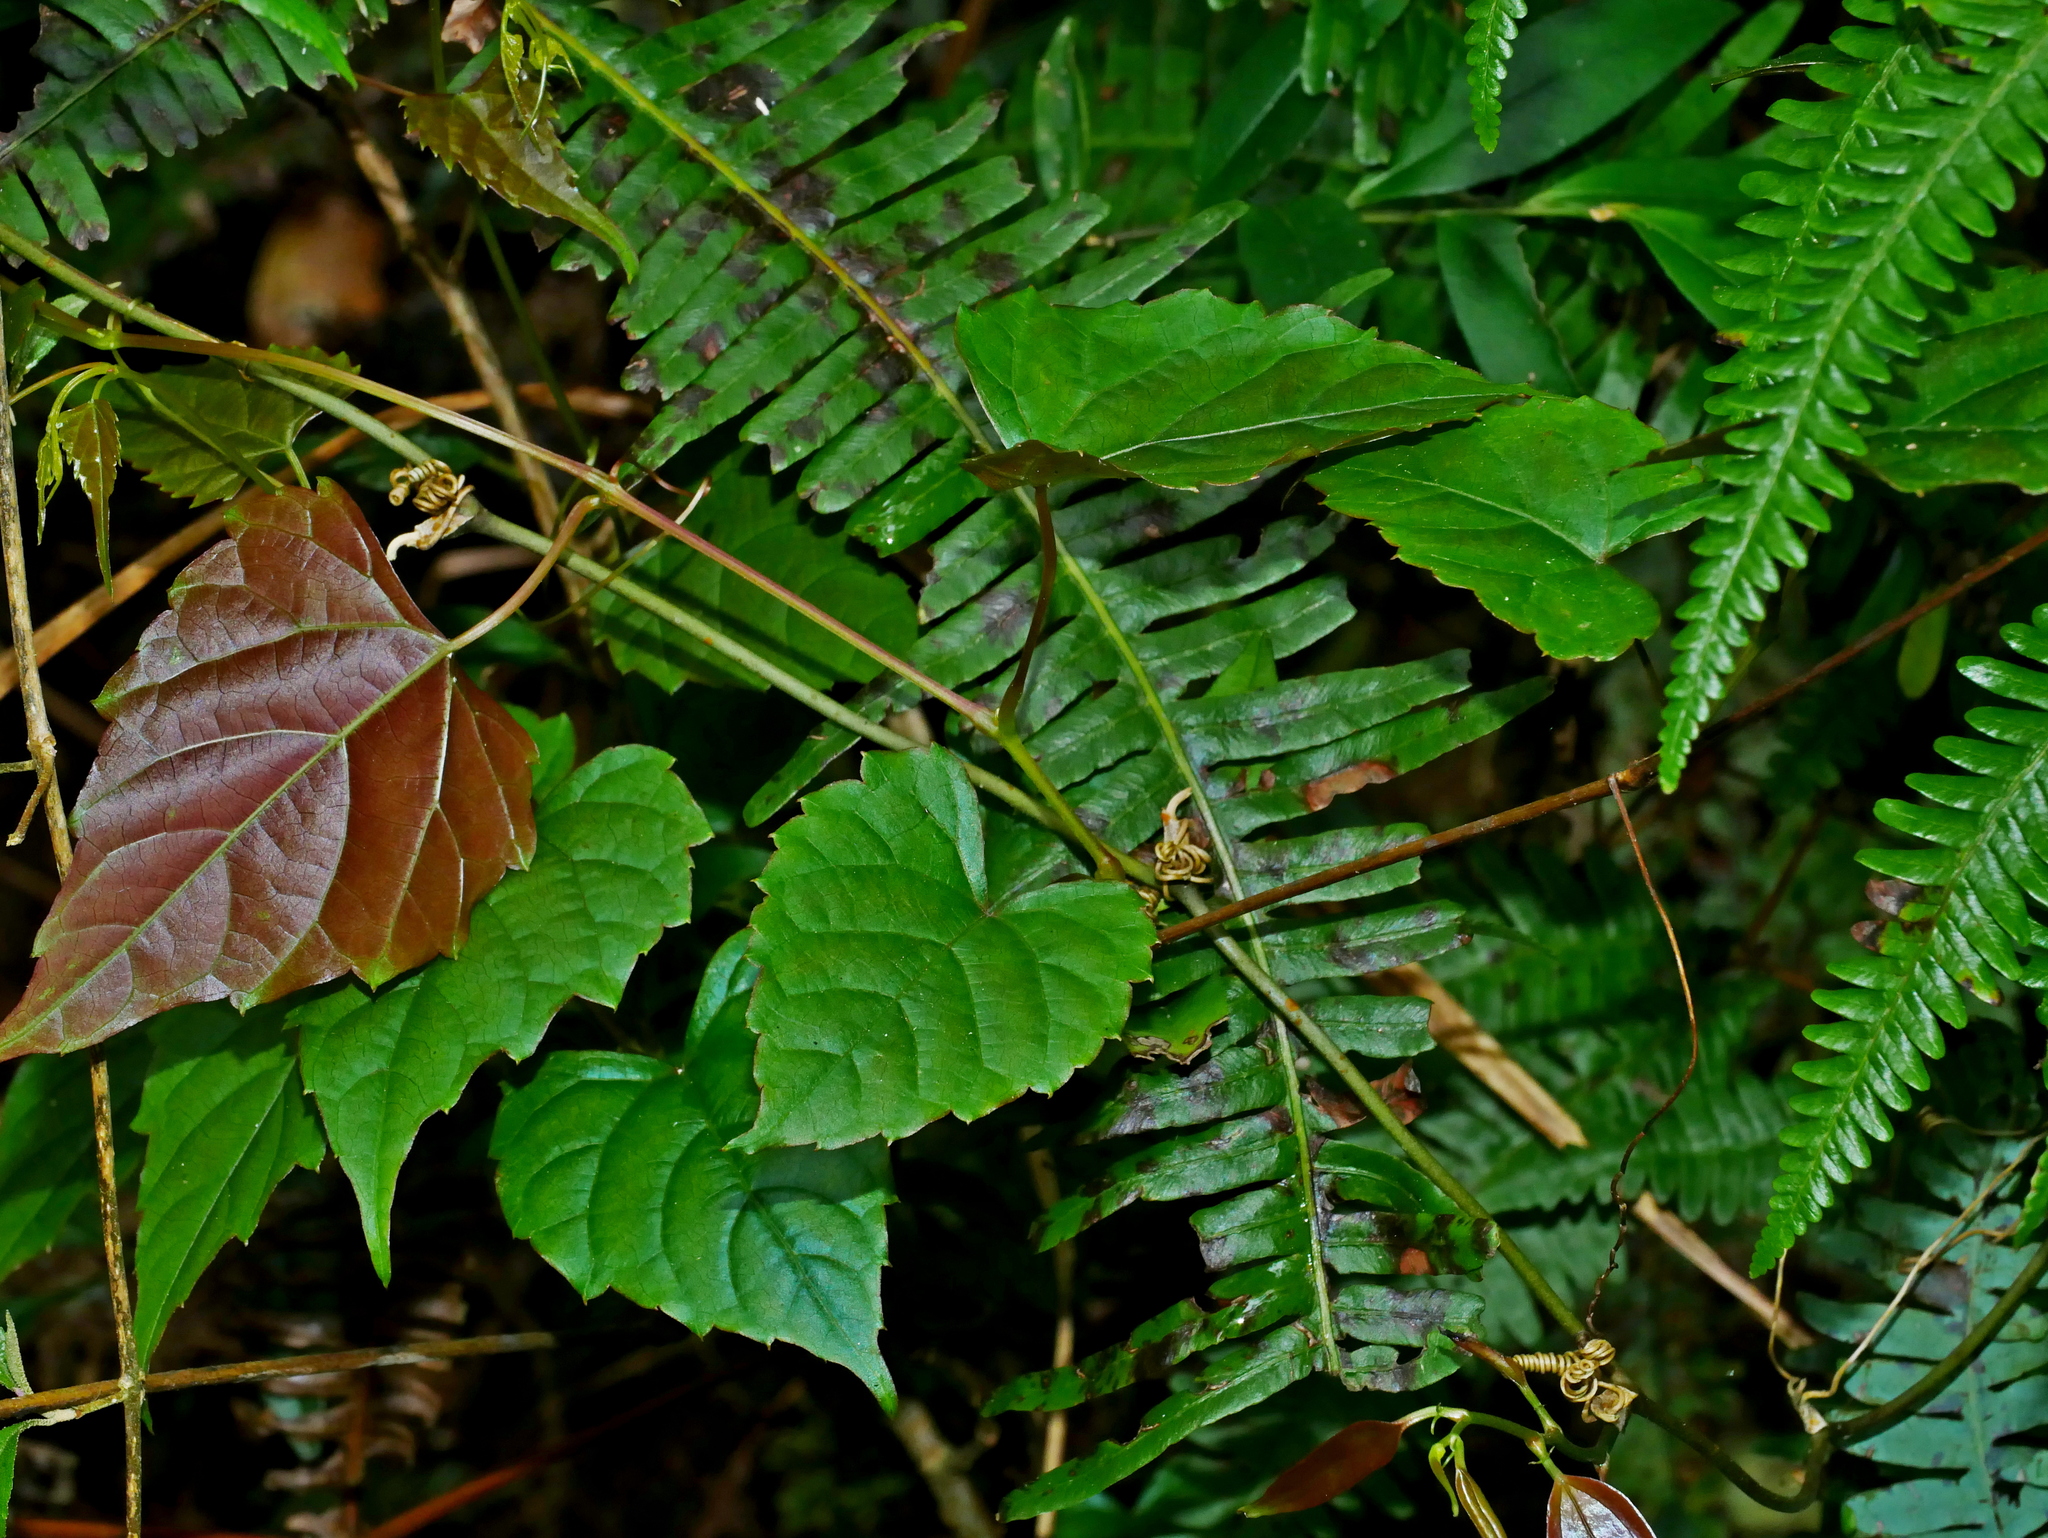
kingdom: Plantae
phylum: Tracheophyta
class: Magnoliopsida
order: Vitales
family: Vitaceae
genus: Vitis
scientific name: Vitis flexuosa
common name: Creeping grape
